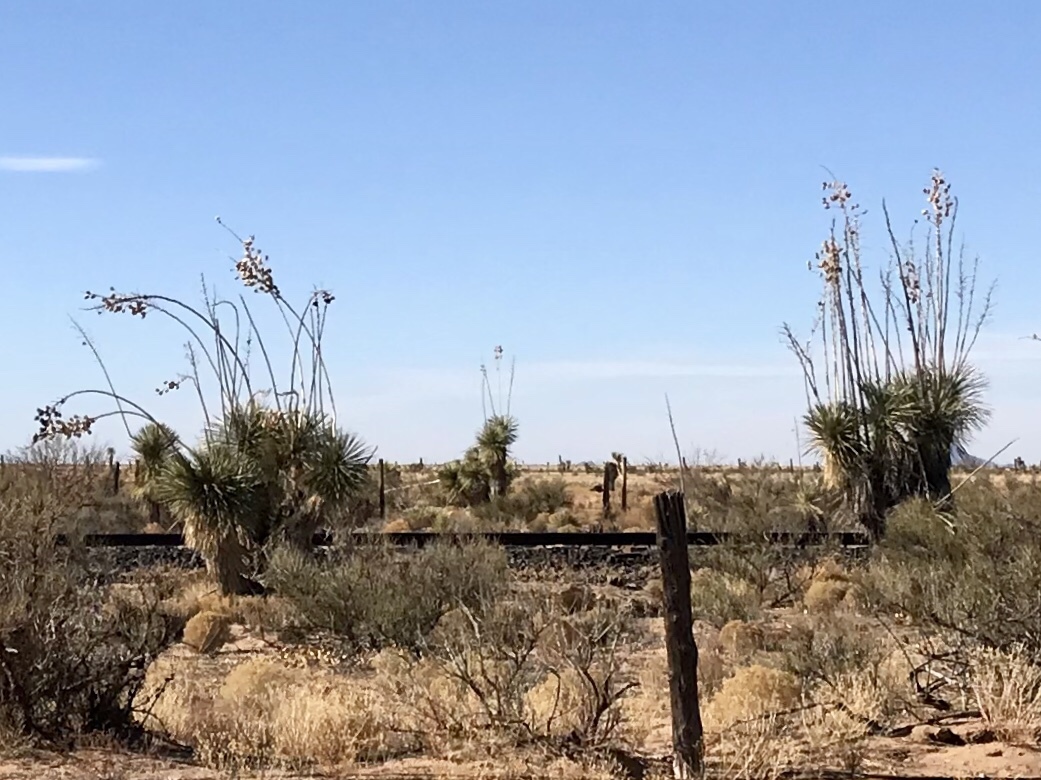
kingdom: Plantae
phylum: Tracheophyta
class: Liliopsida
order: Asparagales
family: Asparagaceae
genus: Yucca
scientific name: Yucca elata
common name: Palmella
